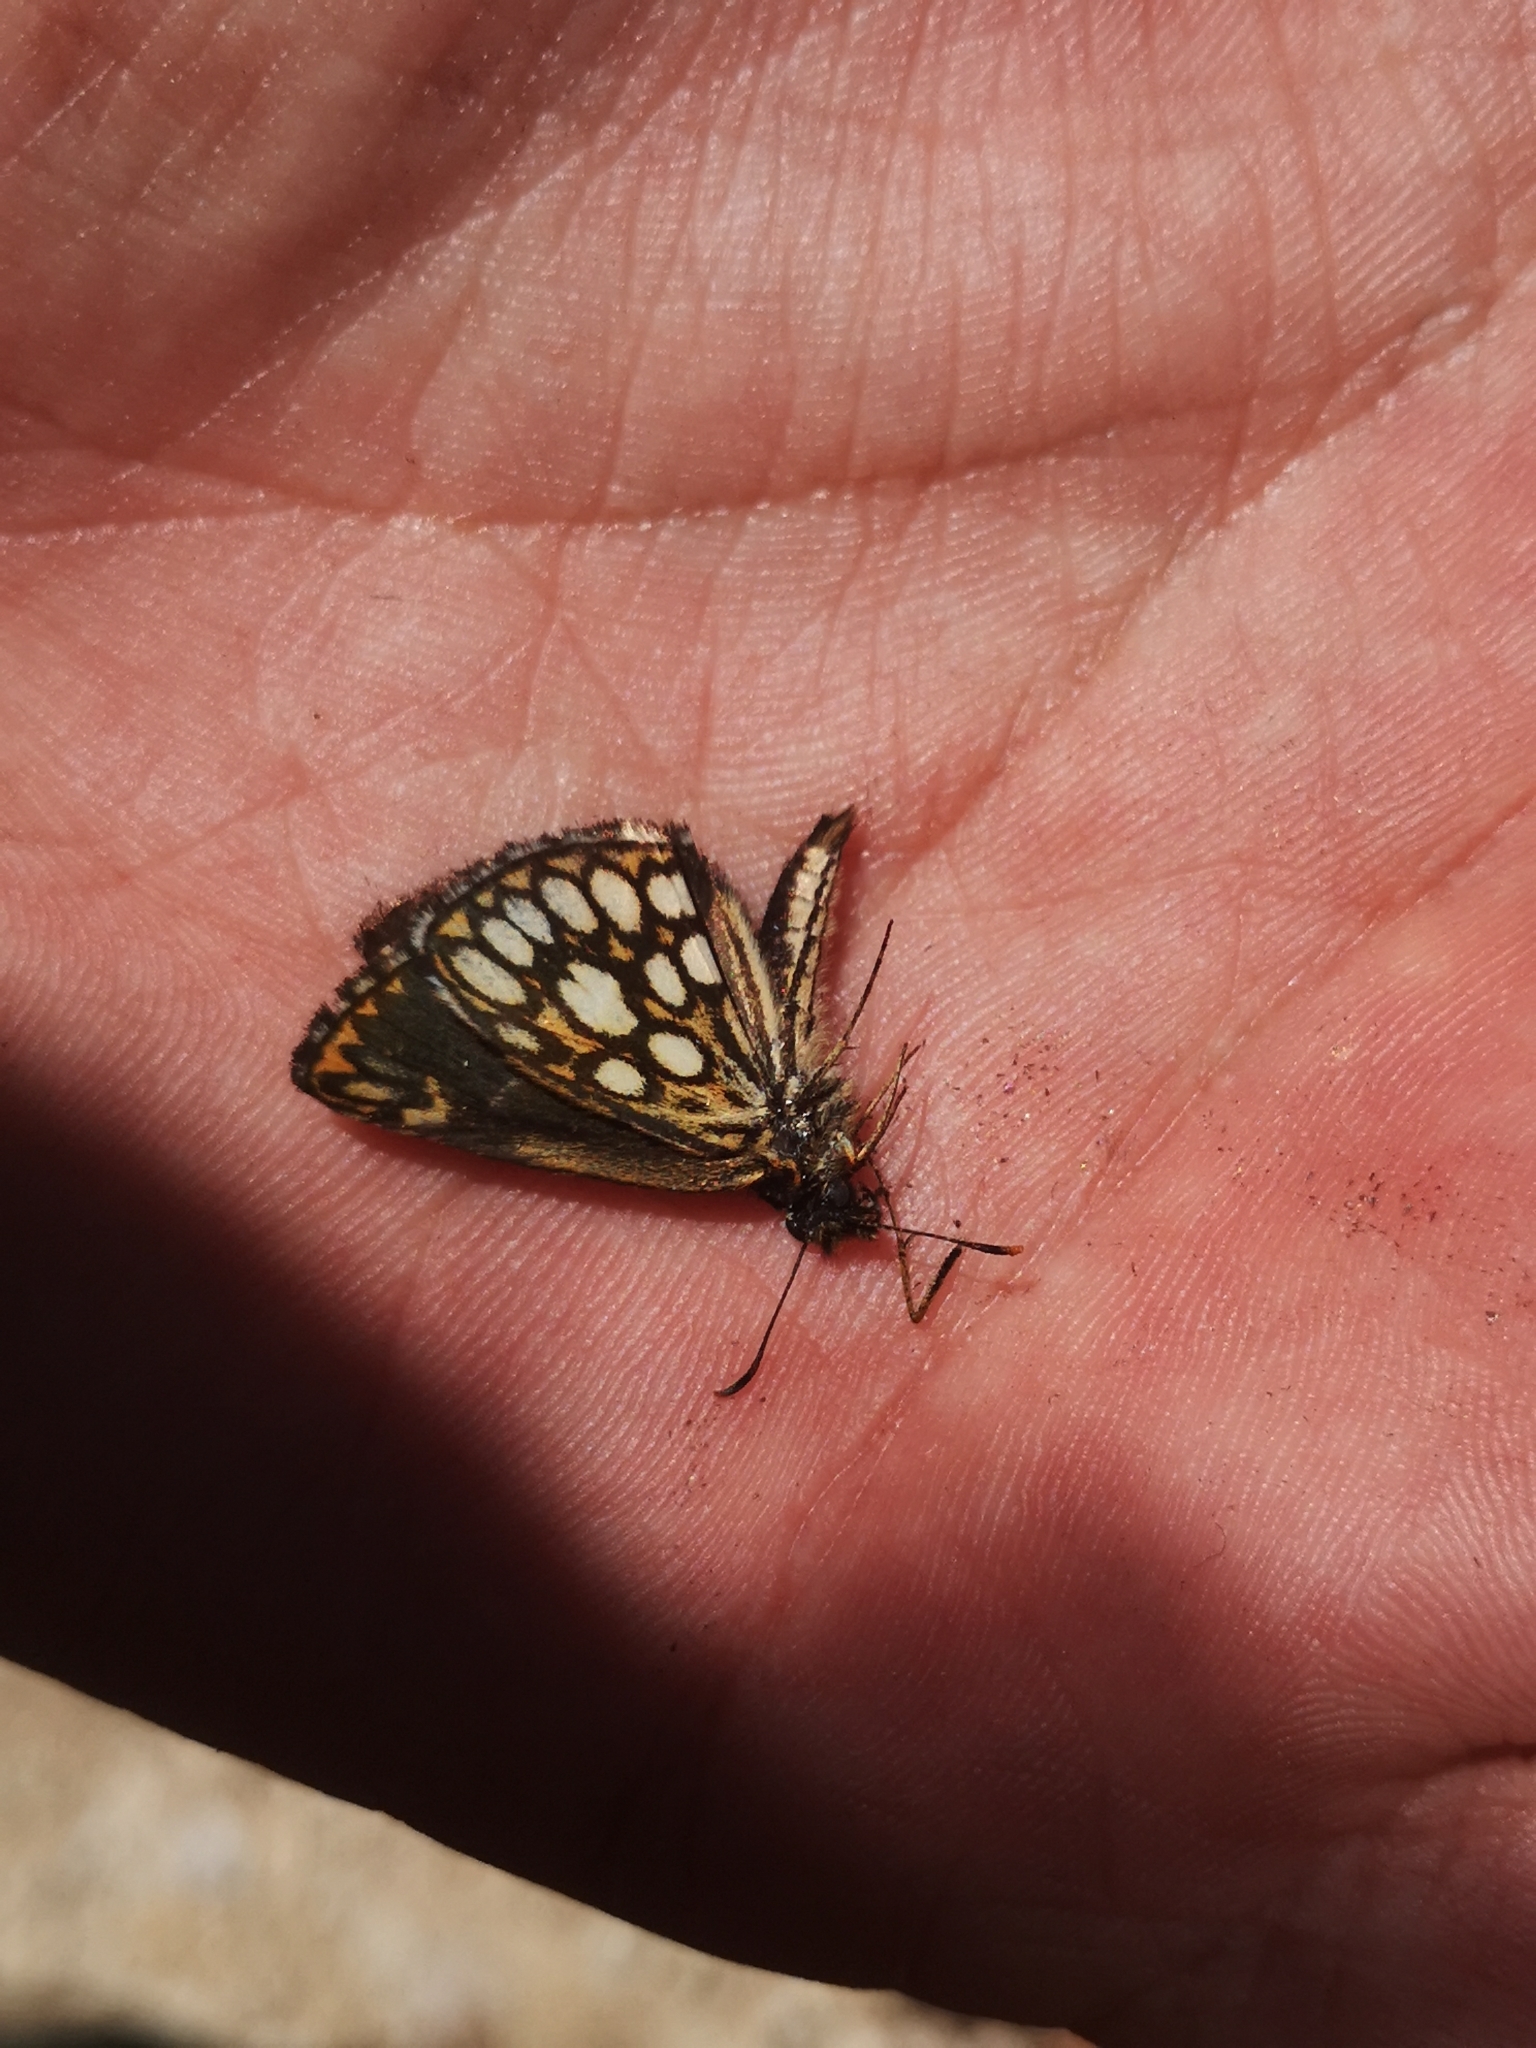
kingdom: Animalia
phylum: Arthropoda
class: Insecta
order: Lepidoptera
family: Hesperiidae
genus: Heteropterus
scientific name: Heteropterus morpheus
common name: Large chequered skipper
